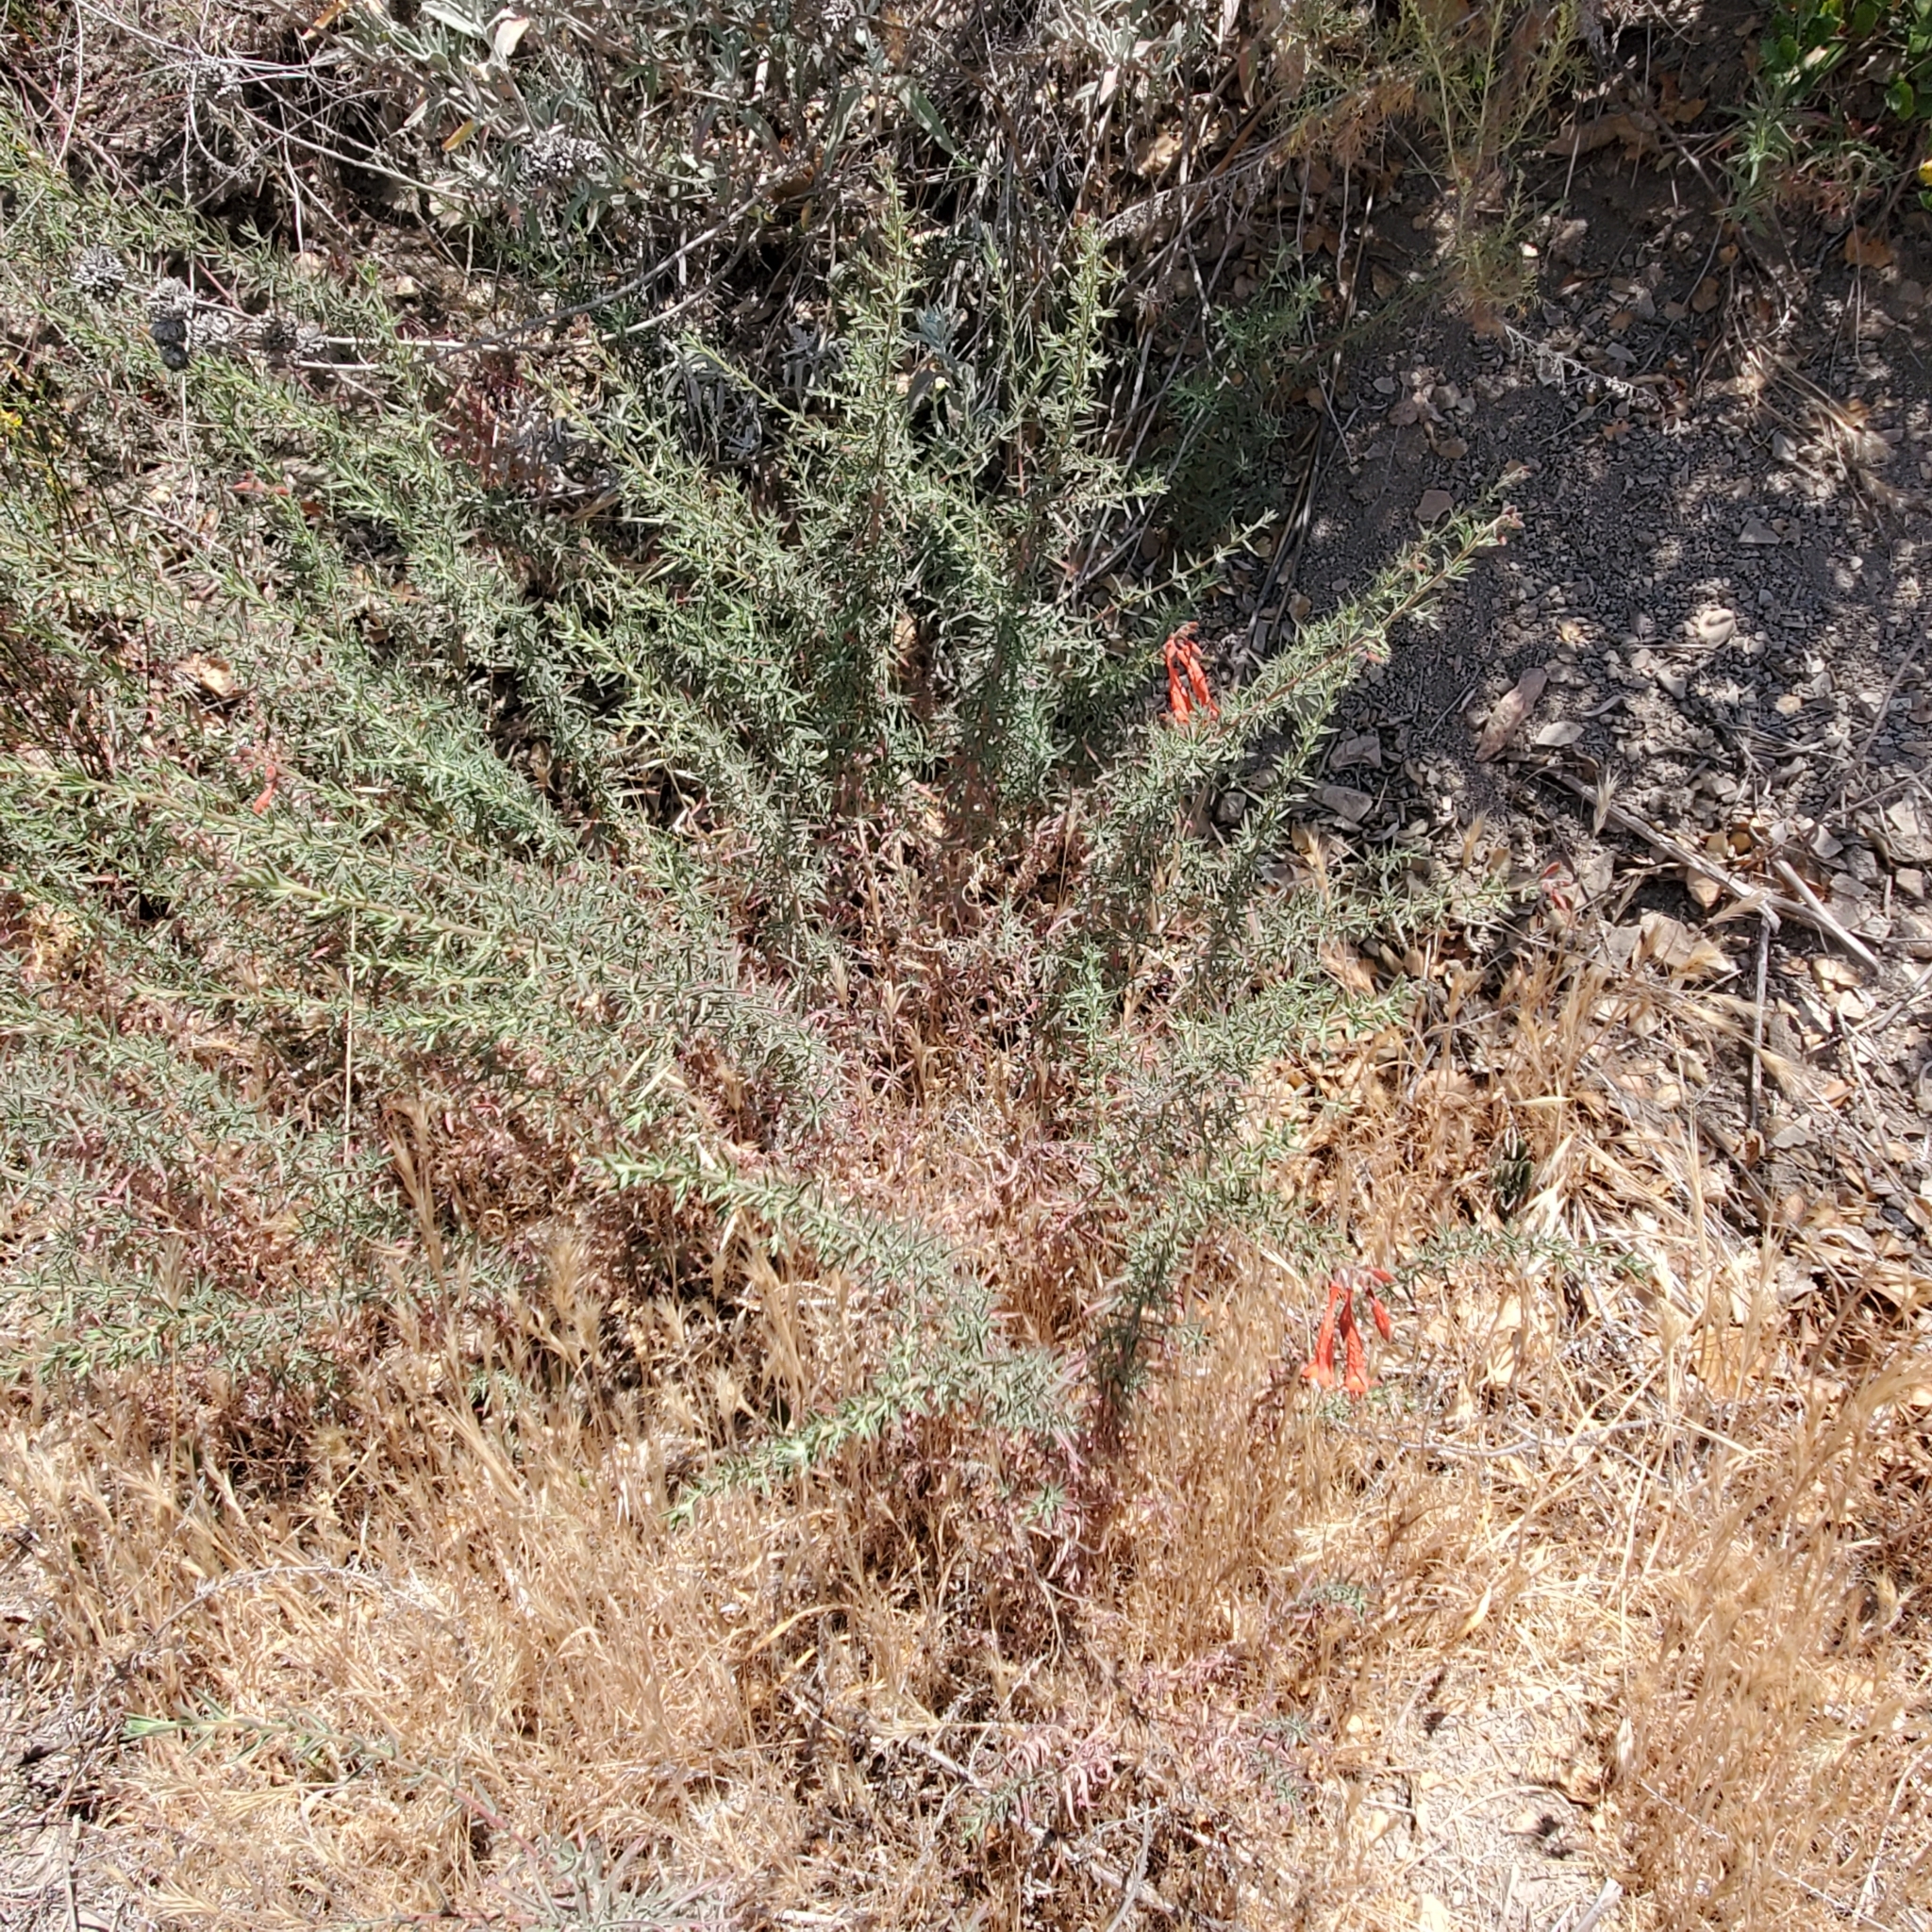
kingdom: Plantae
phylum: Tracheophyta
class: Magnoliopsida
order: Myrtales
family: Onagraceae
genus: Epilobium
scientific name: Epilobium canum
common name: California-fuchsia
